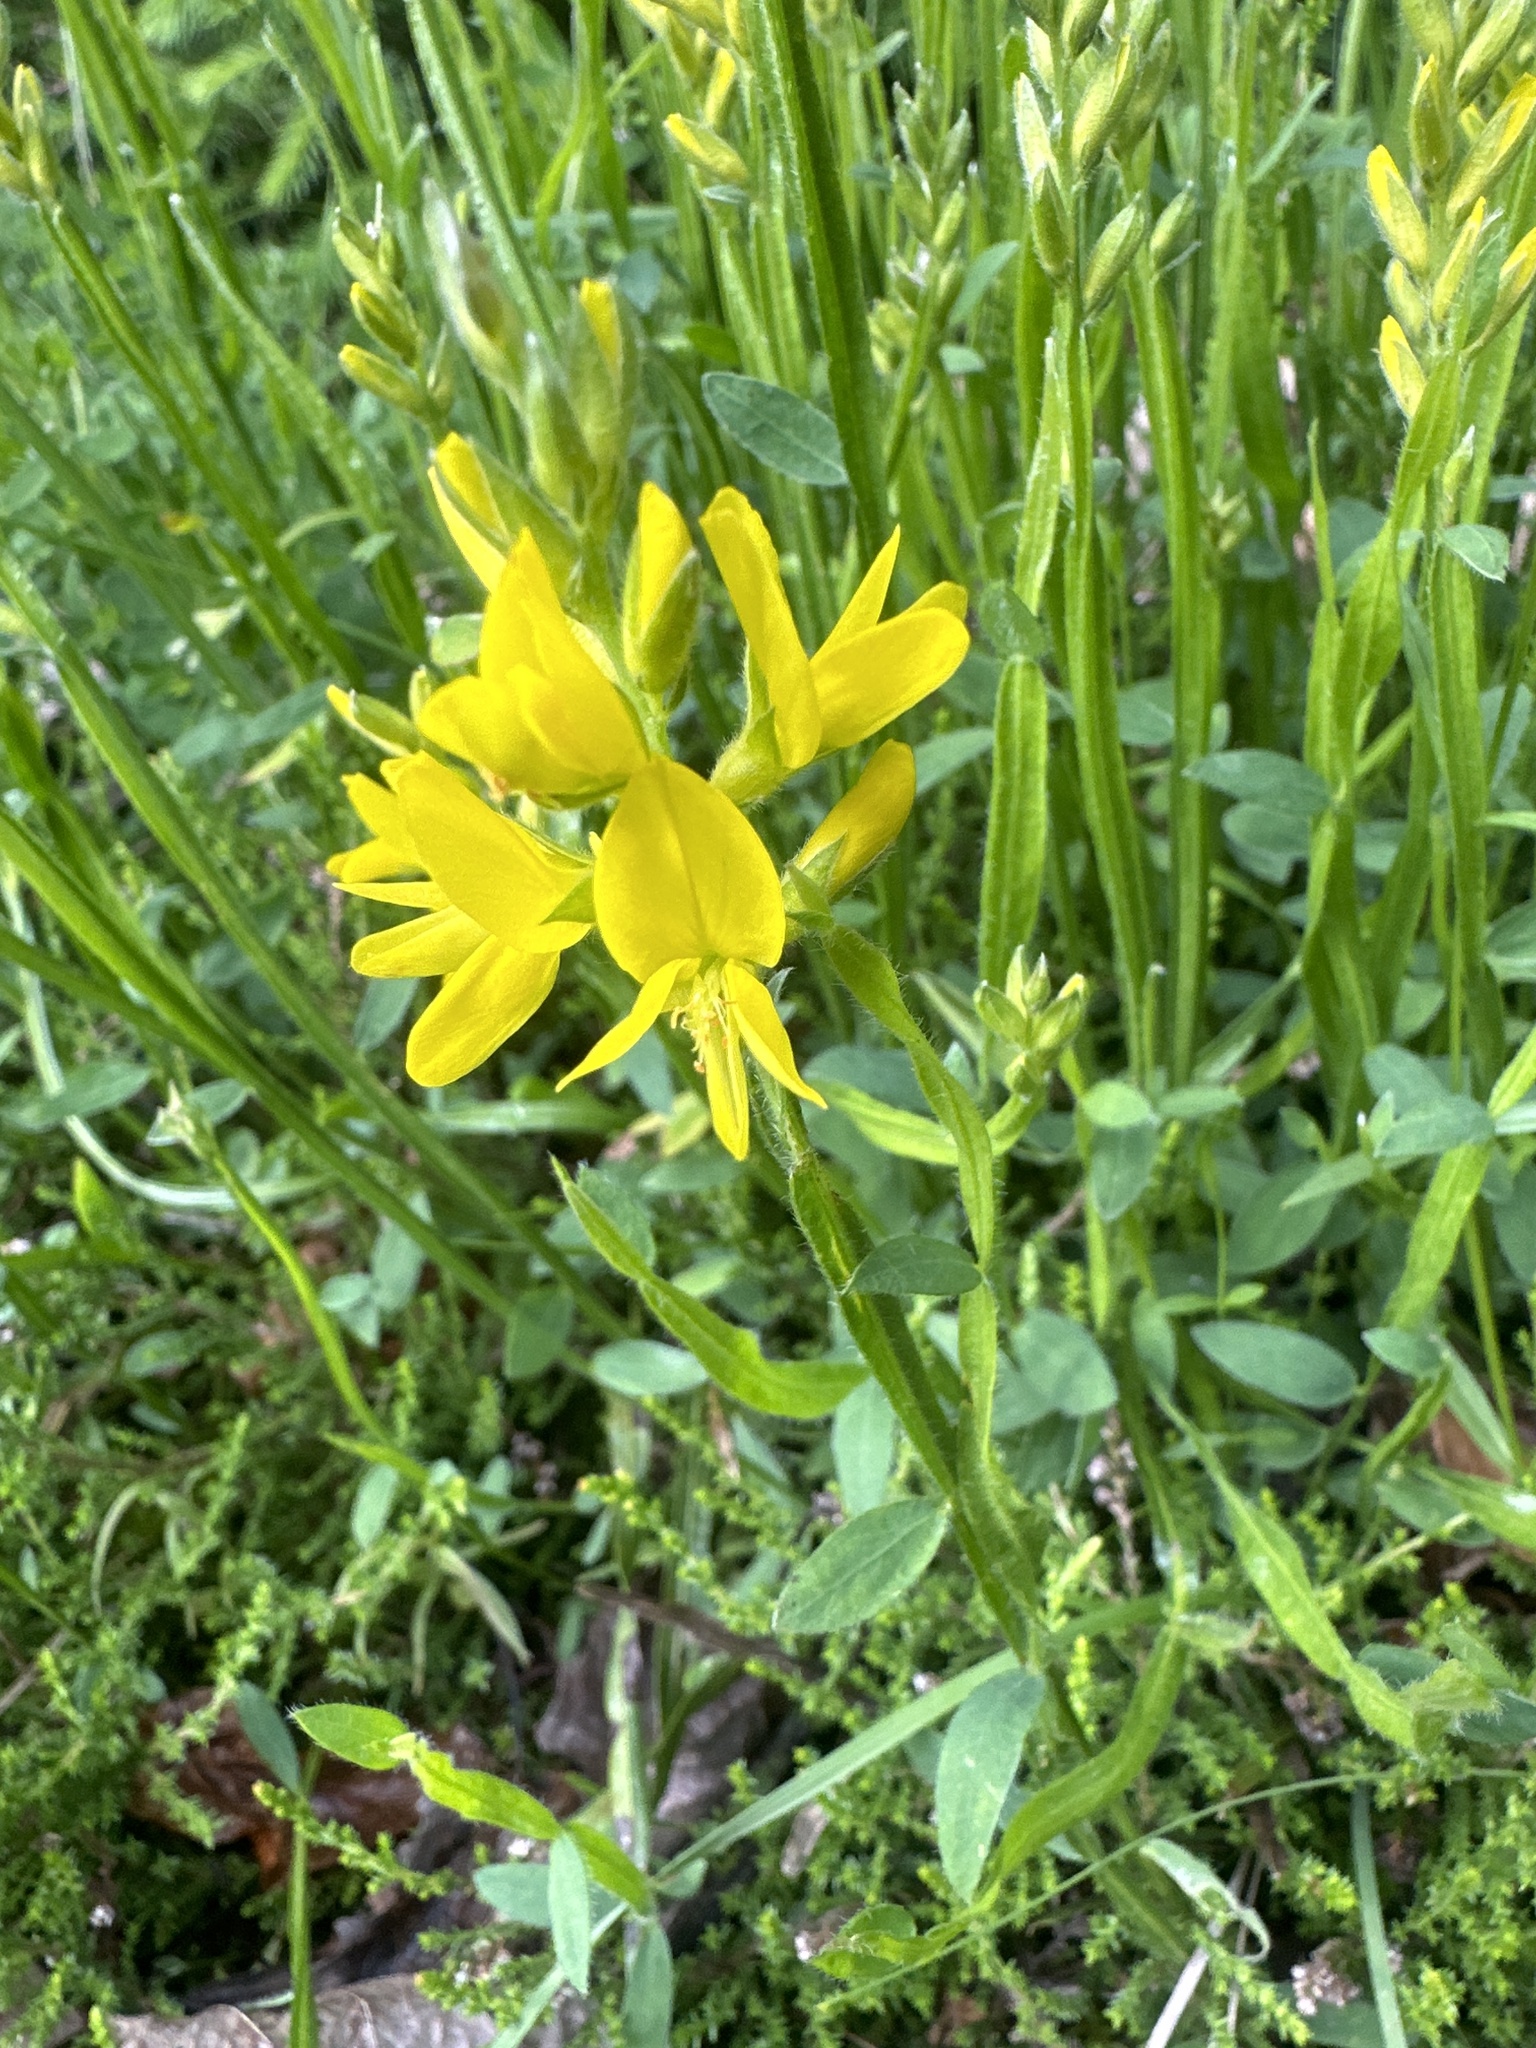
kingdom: Plantae
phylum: Tracheophyta
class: Magnoliopsida
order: Fabales
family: Fabaceae
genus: Genista
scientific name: Genista sagittalis
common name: Winged greenweed
